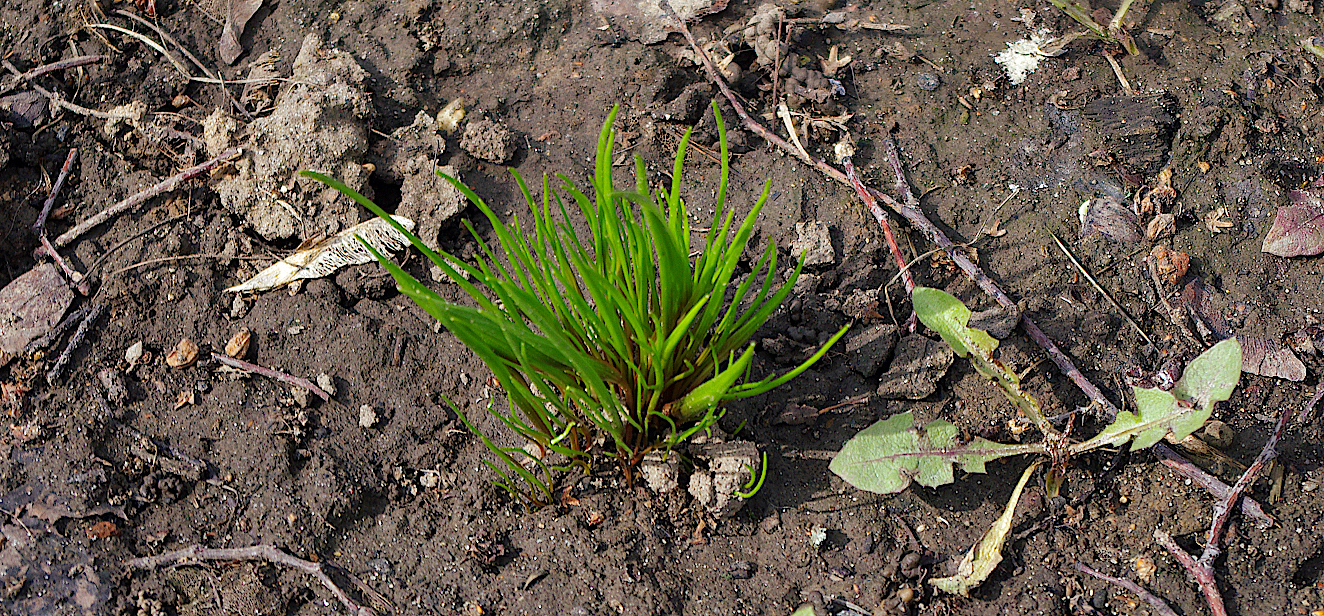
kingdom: Plantae
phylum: Tracheophyta
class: Liliopsida
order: Liliales
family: Liliaceae
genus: Gagea
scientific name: Gagea minima
